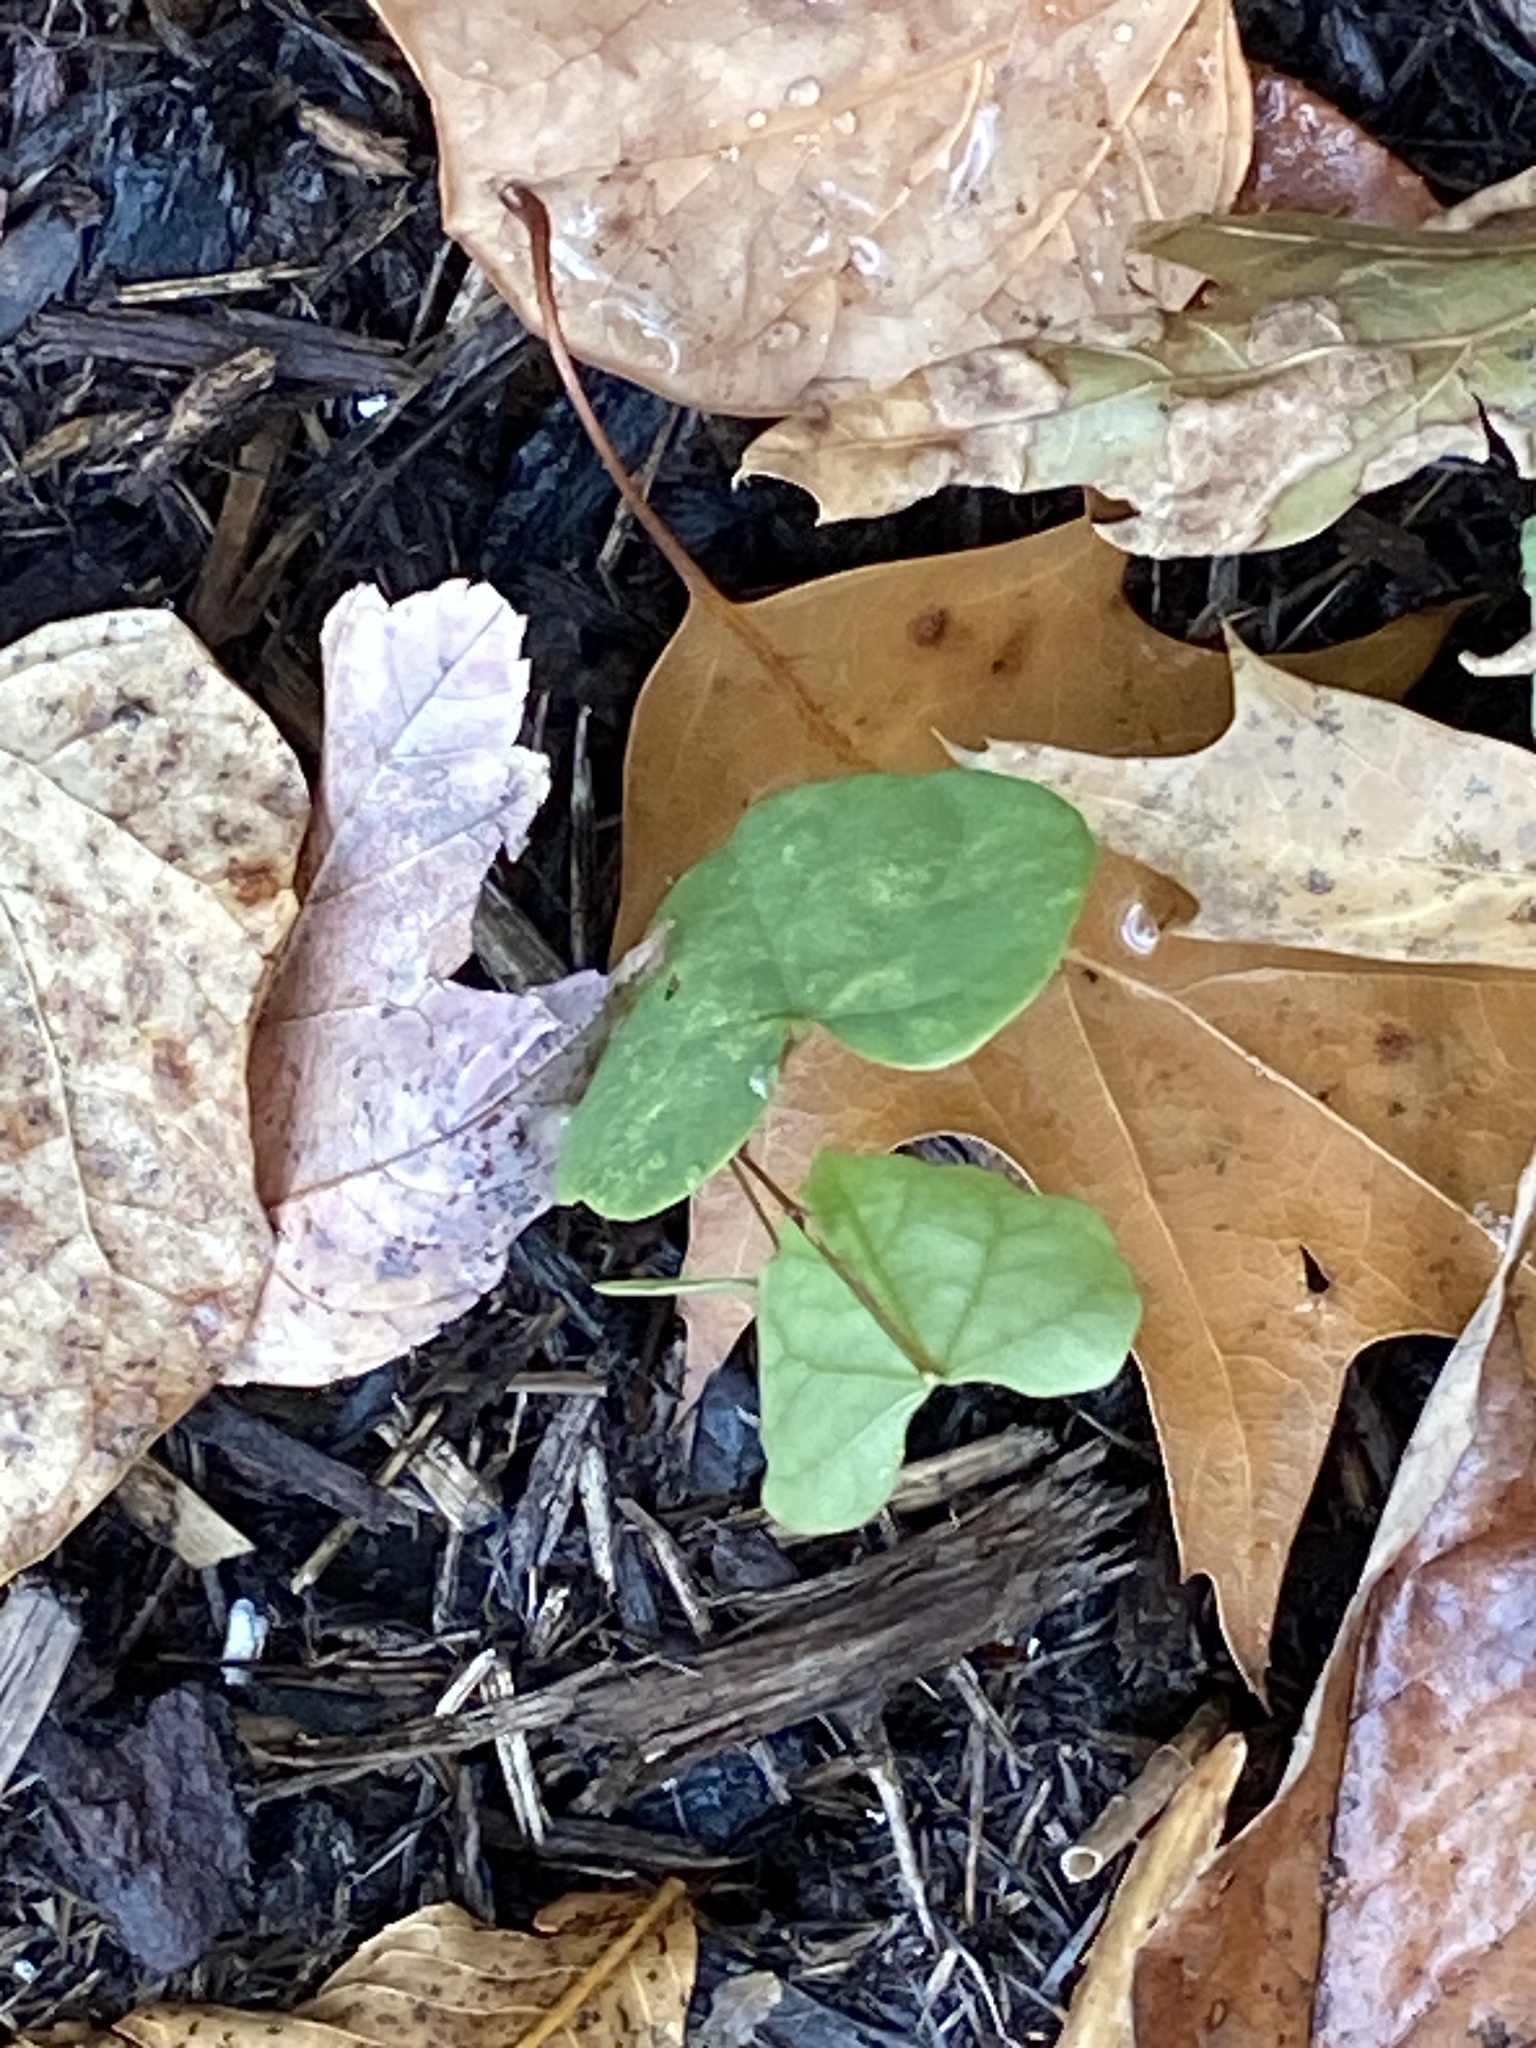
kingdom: Plantae
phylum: Tracheophyta
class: Magnoliopsida
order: Fabales
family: Fabaceae
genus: Cercis
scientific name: Cercis canadensis
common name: Eastern redbud
